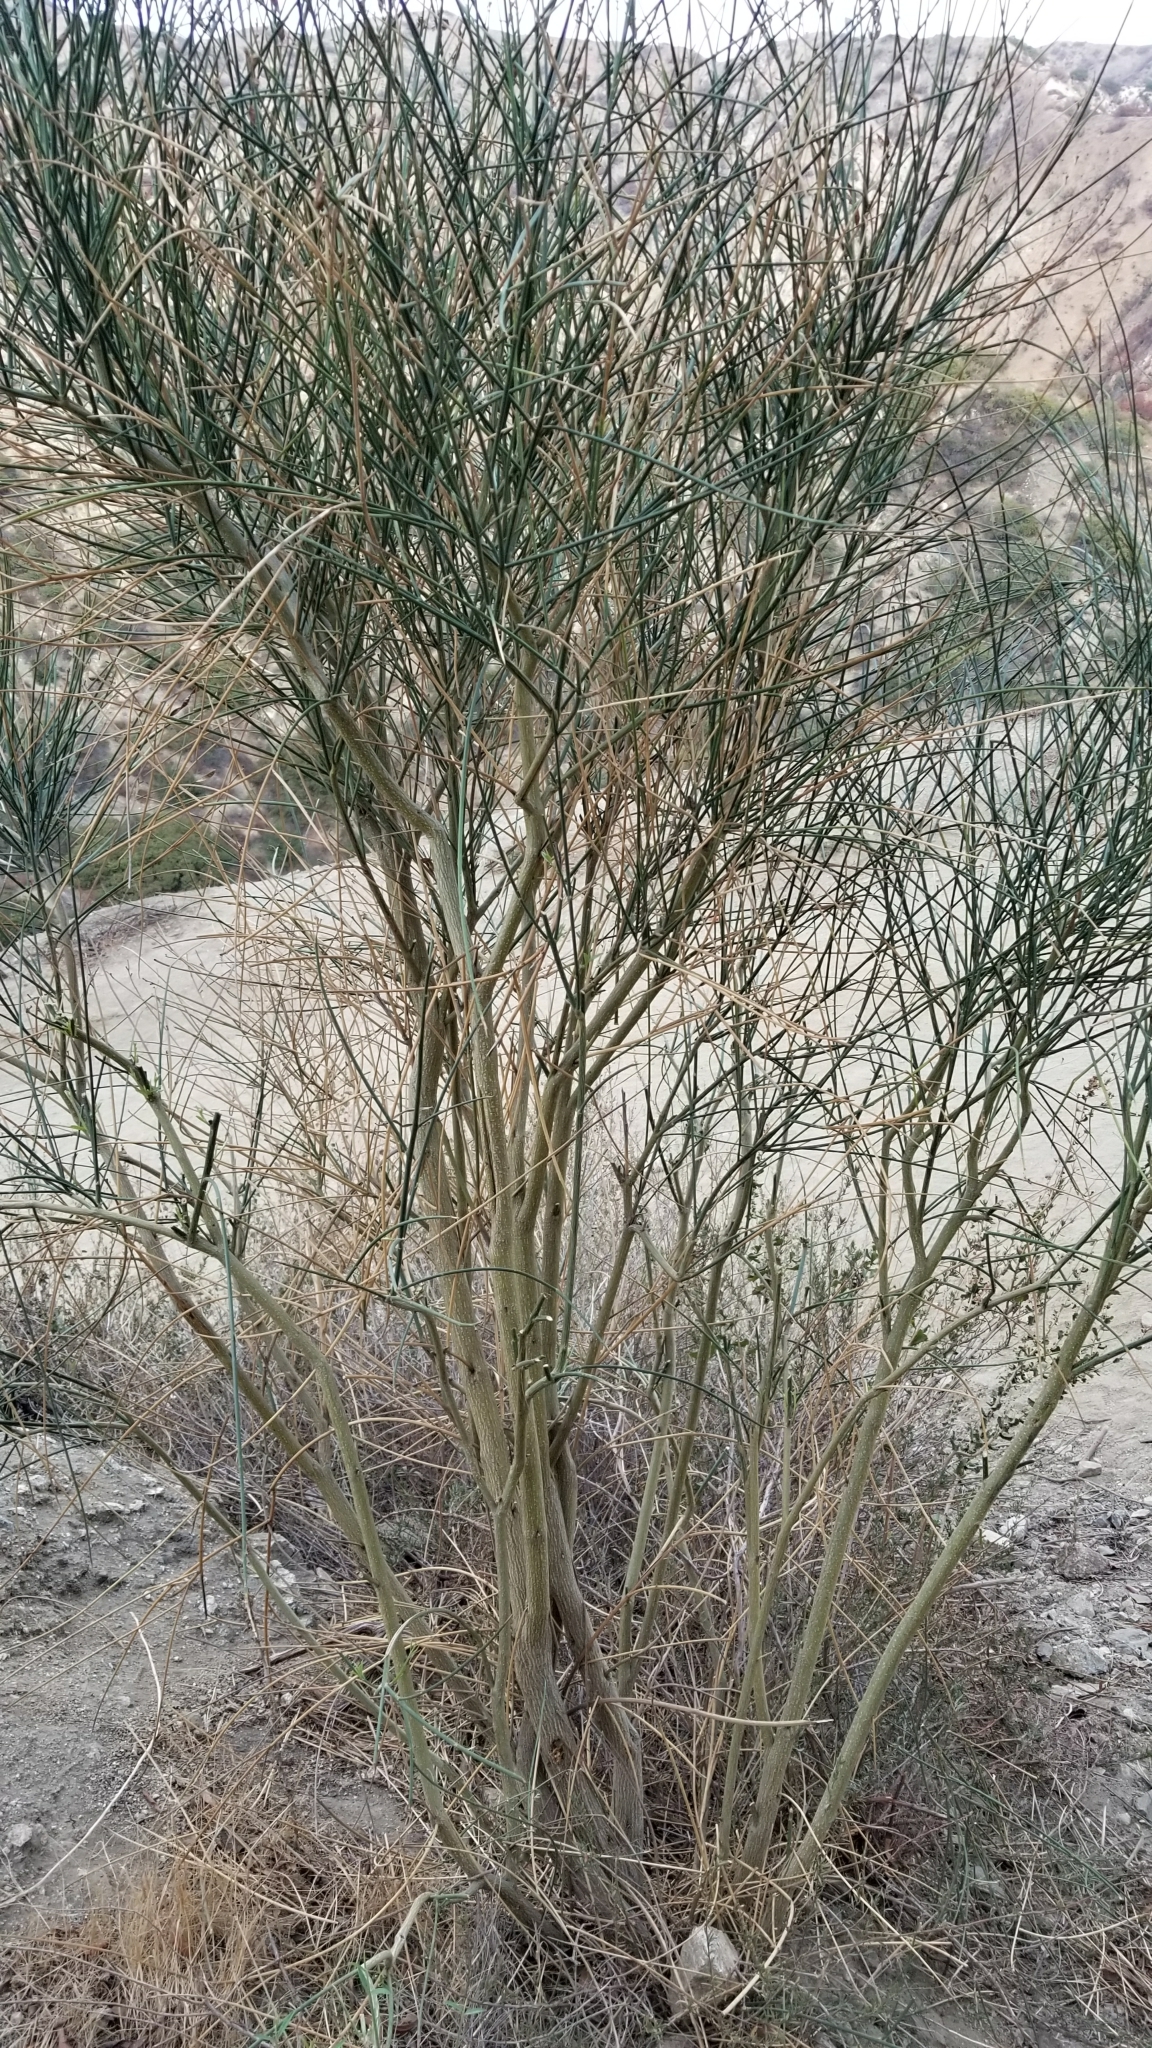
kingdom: Plantae
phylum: Tracheophyta
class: Magnoliopsida
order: Fabales
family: Fabaceae
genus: Spartium
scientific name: Spartium junceum
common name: Spanish broom
